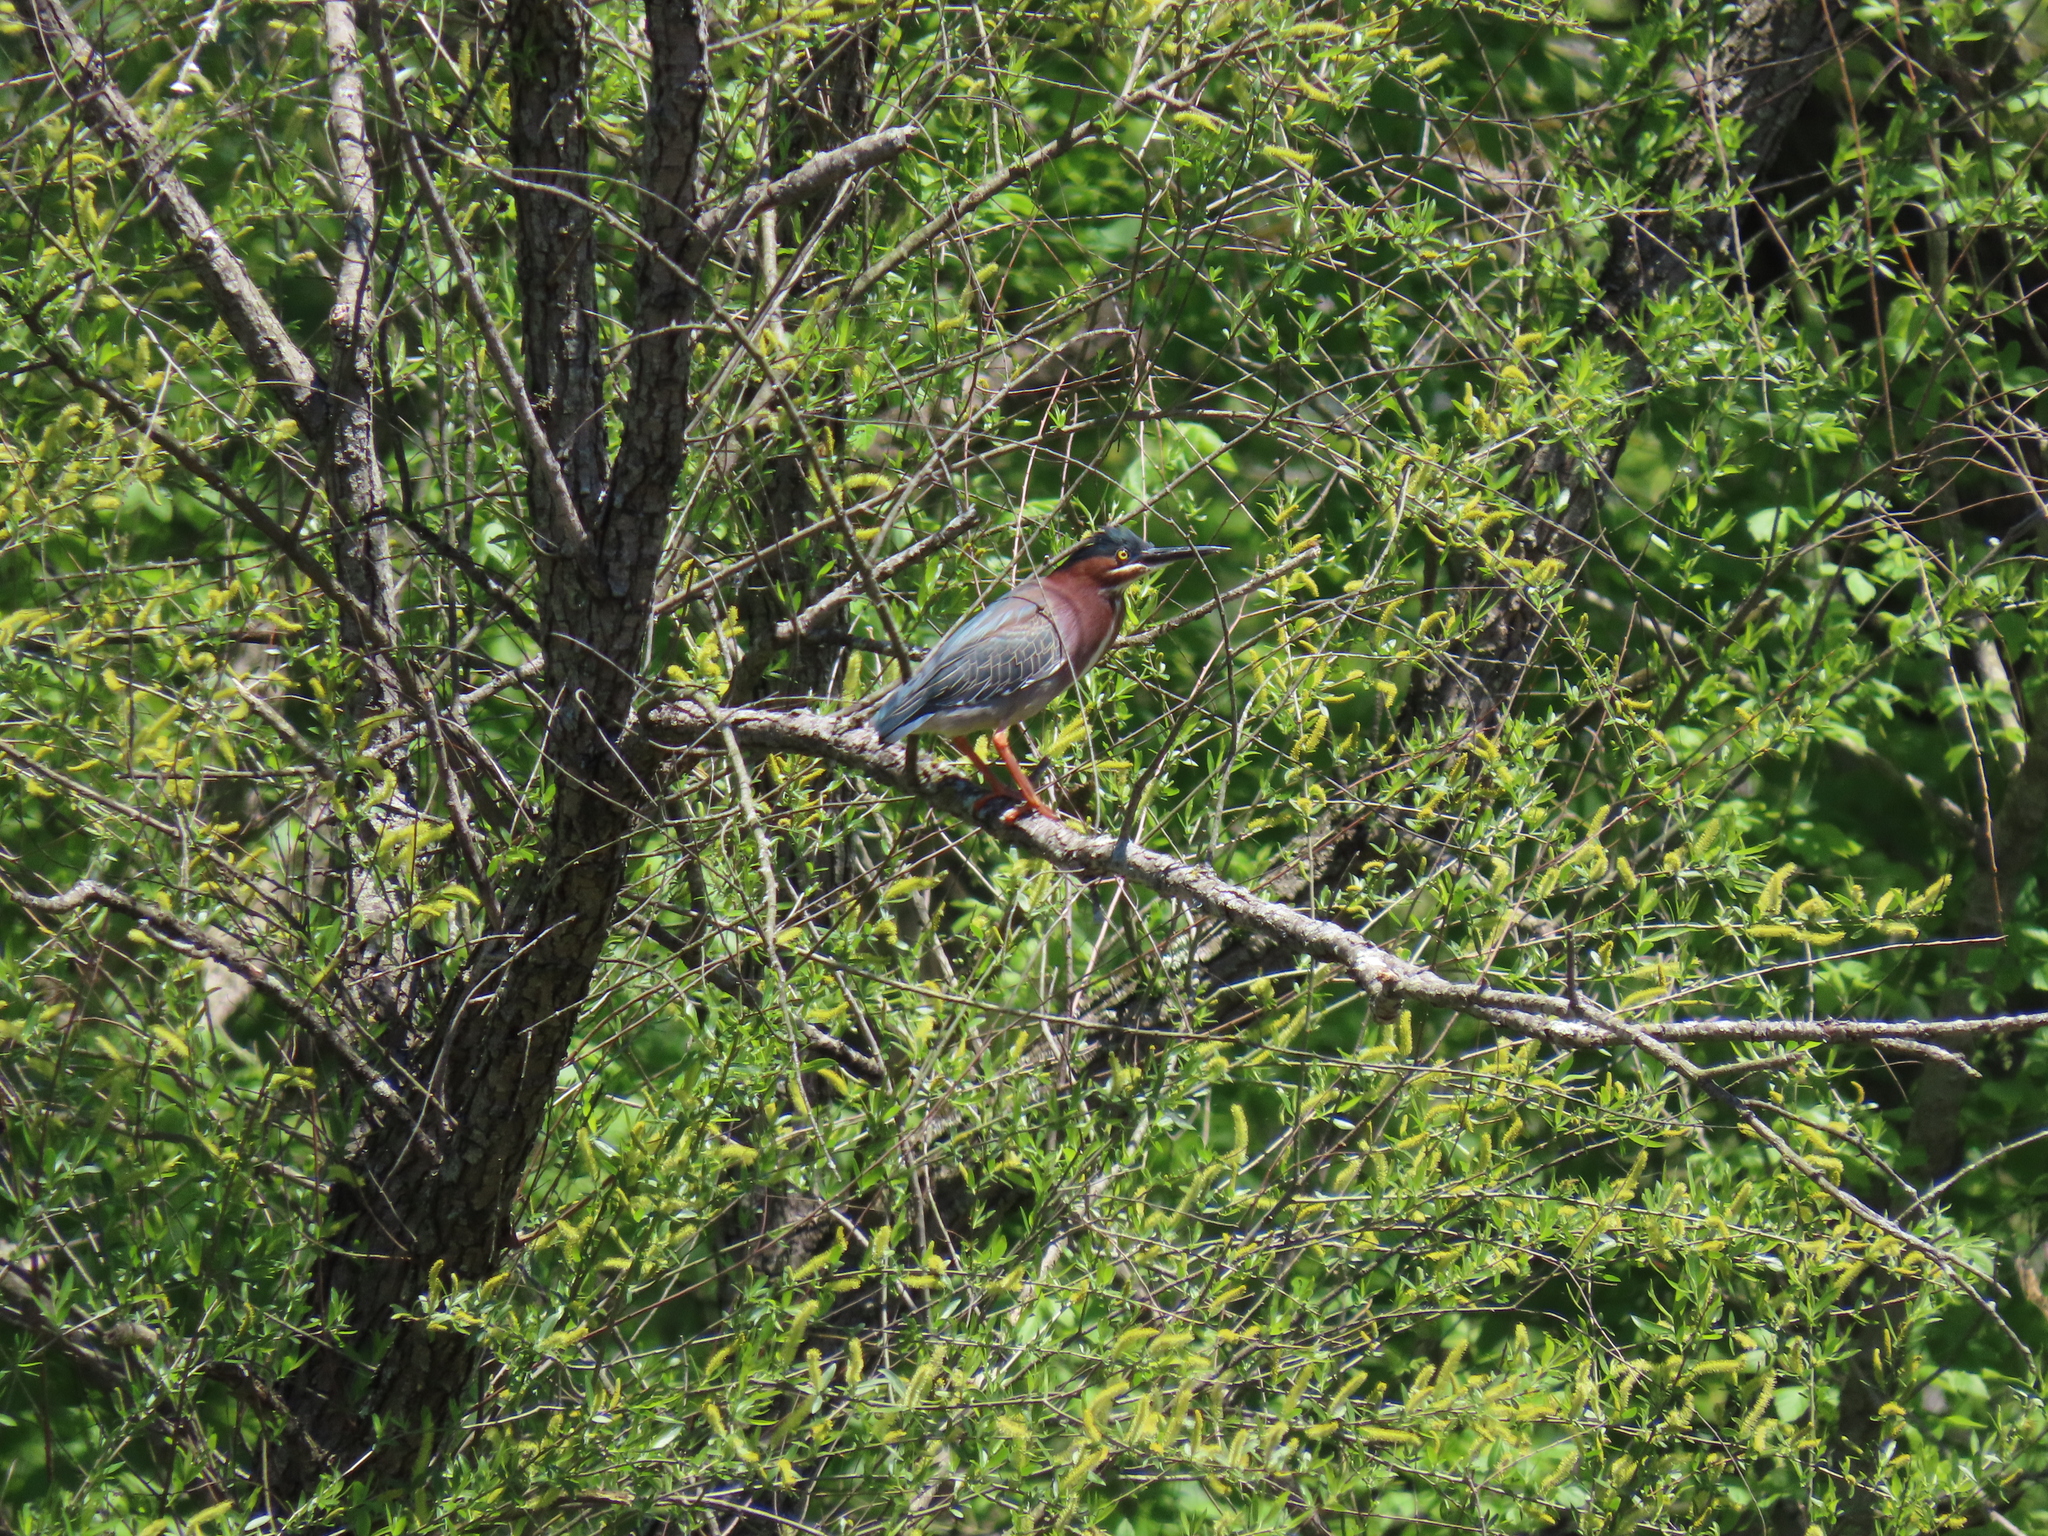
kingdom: Animalia
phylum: Chordata
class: Aves
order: Pelecaniformes
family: Ardeidae
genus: Butorides
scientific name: Butorides virescens
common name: Green heron
